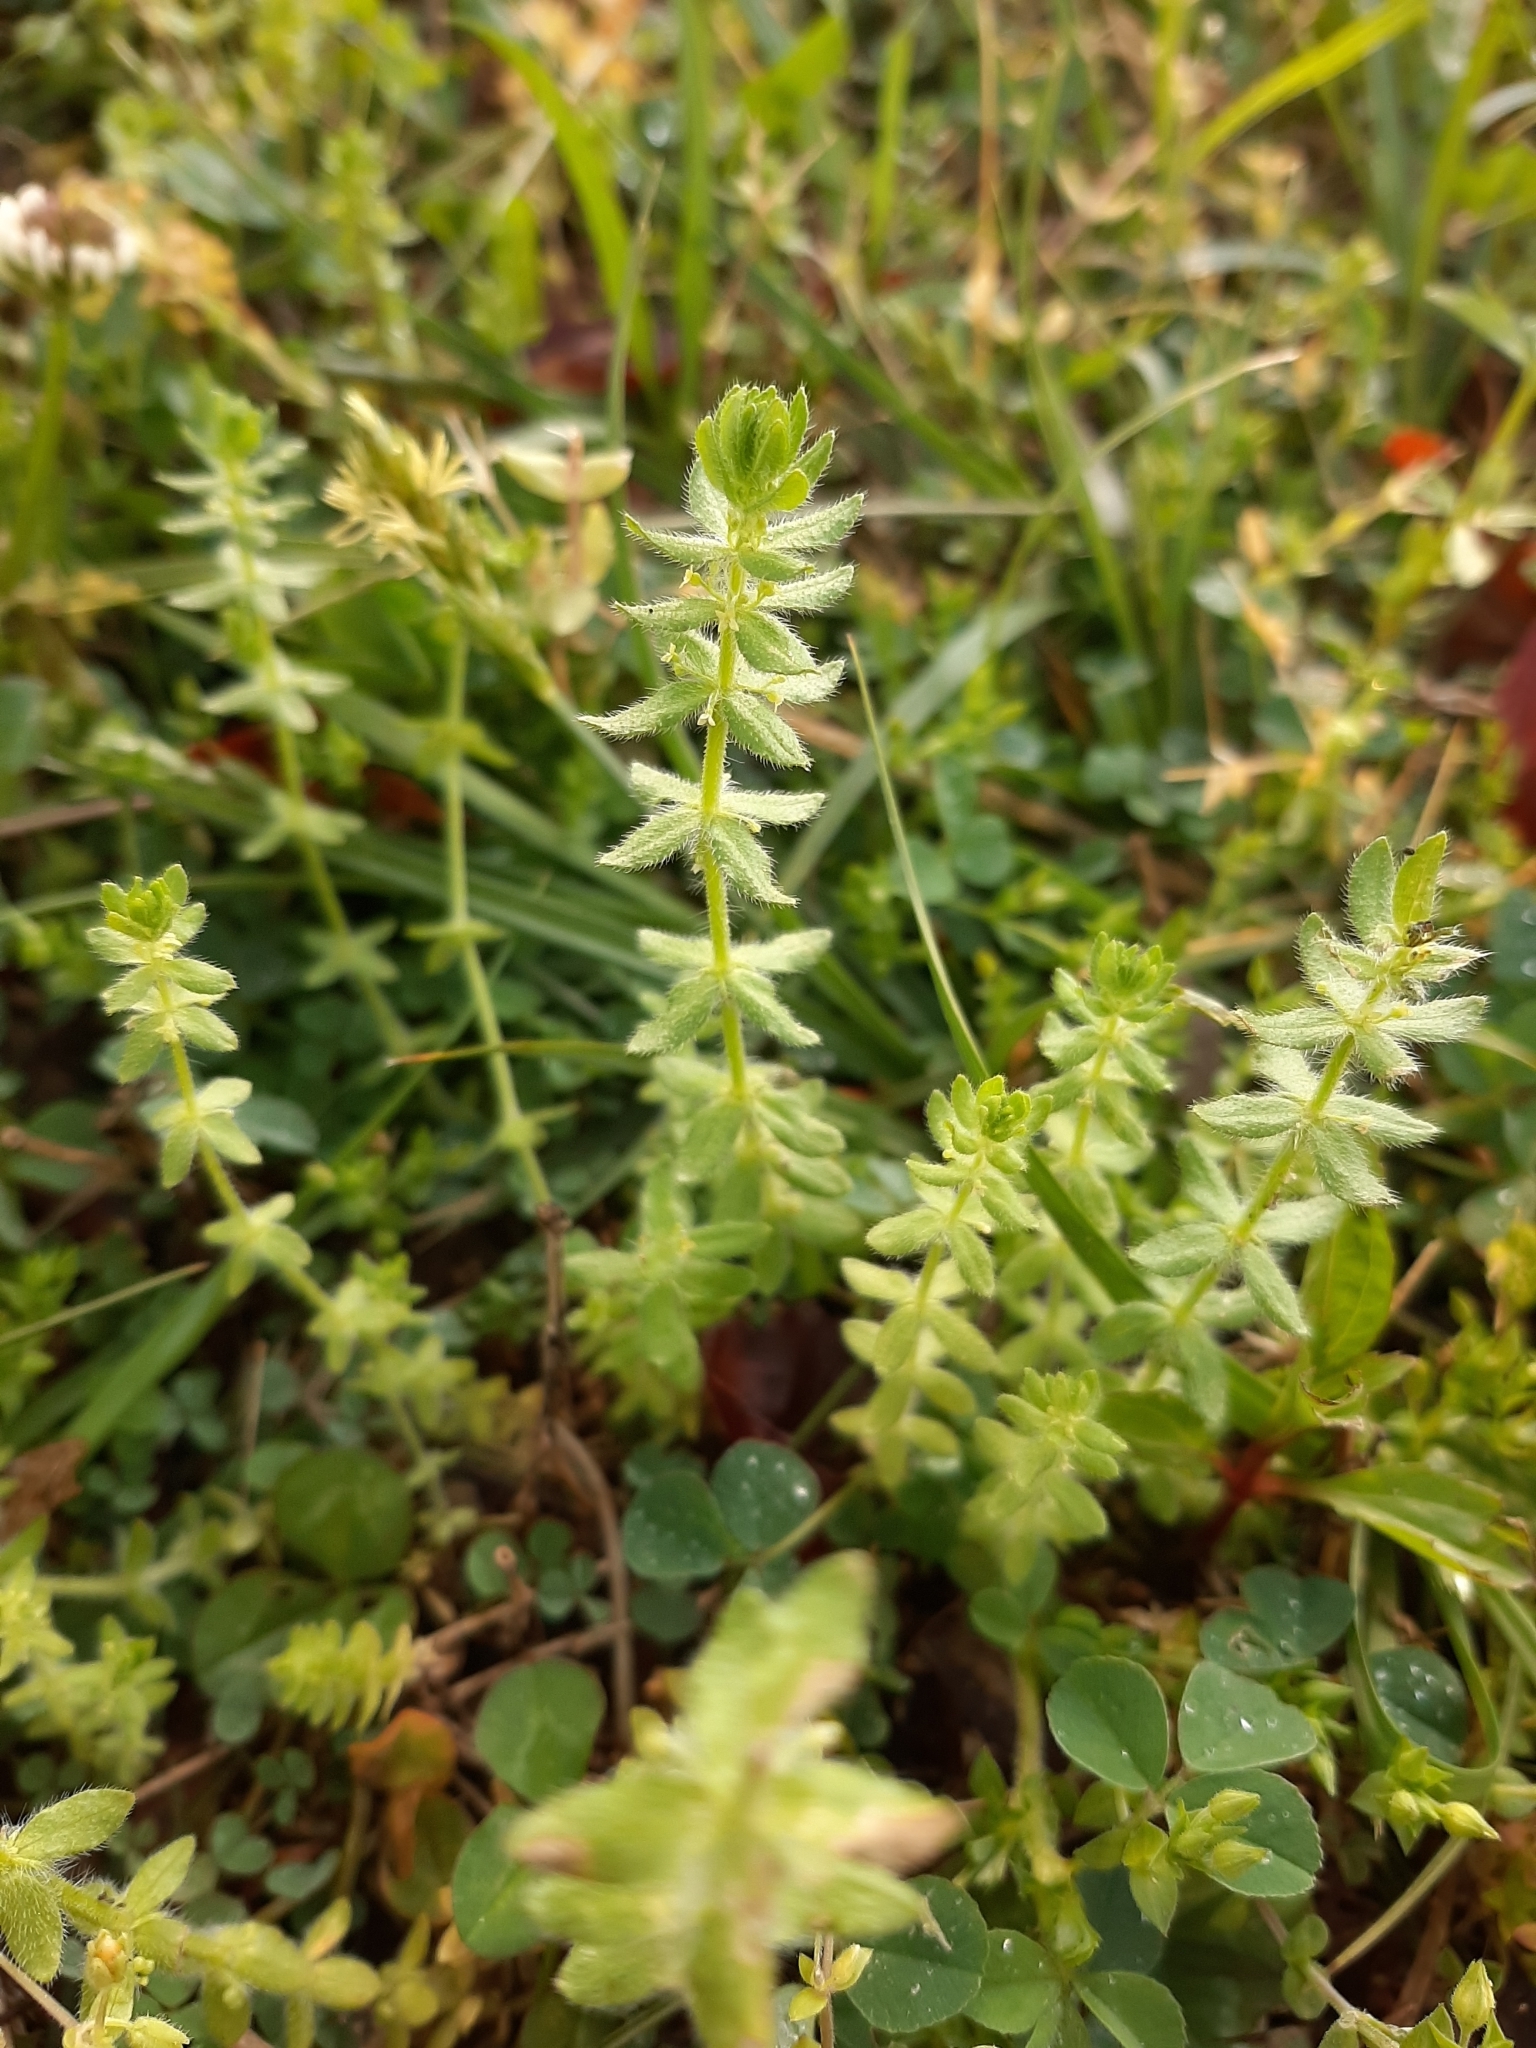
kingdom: Plantae
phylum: Tracheophyta
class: Magnoliopsida
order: Gentianales
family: Rubiaceae
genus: Cruciata
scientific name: Cruciata pedemontana
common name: Piedmont bedstraw
